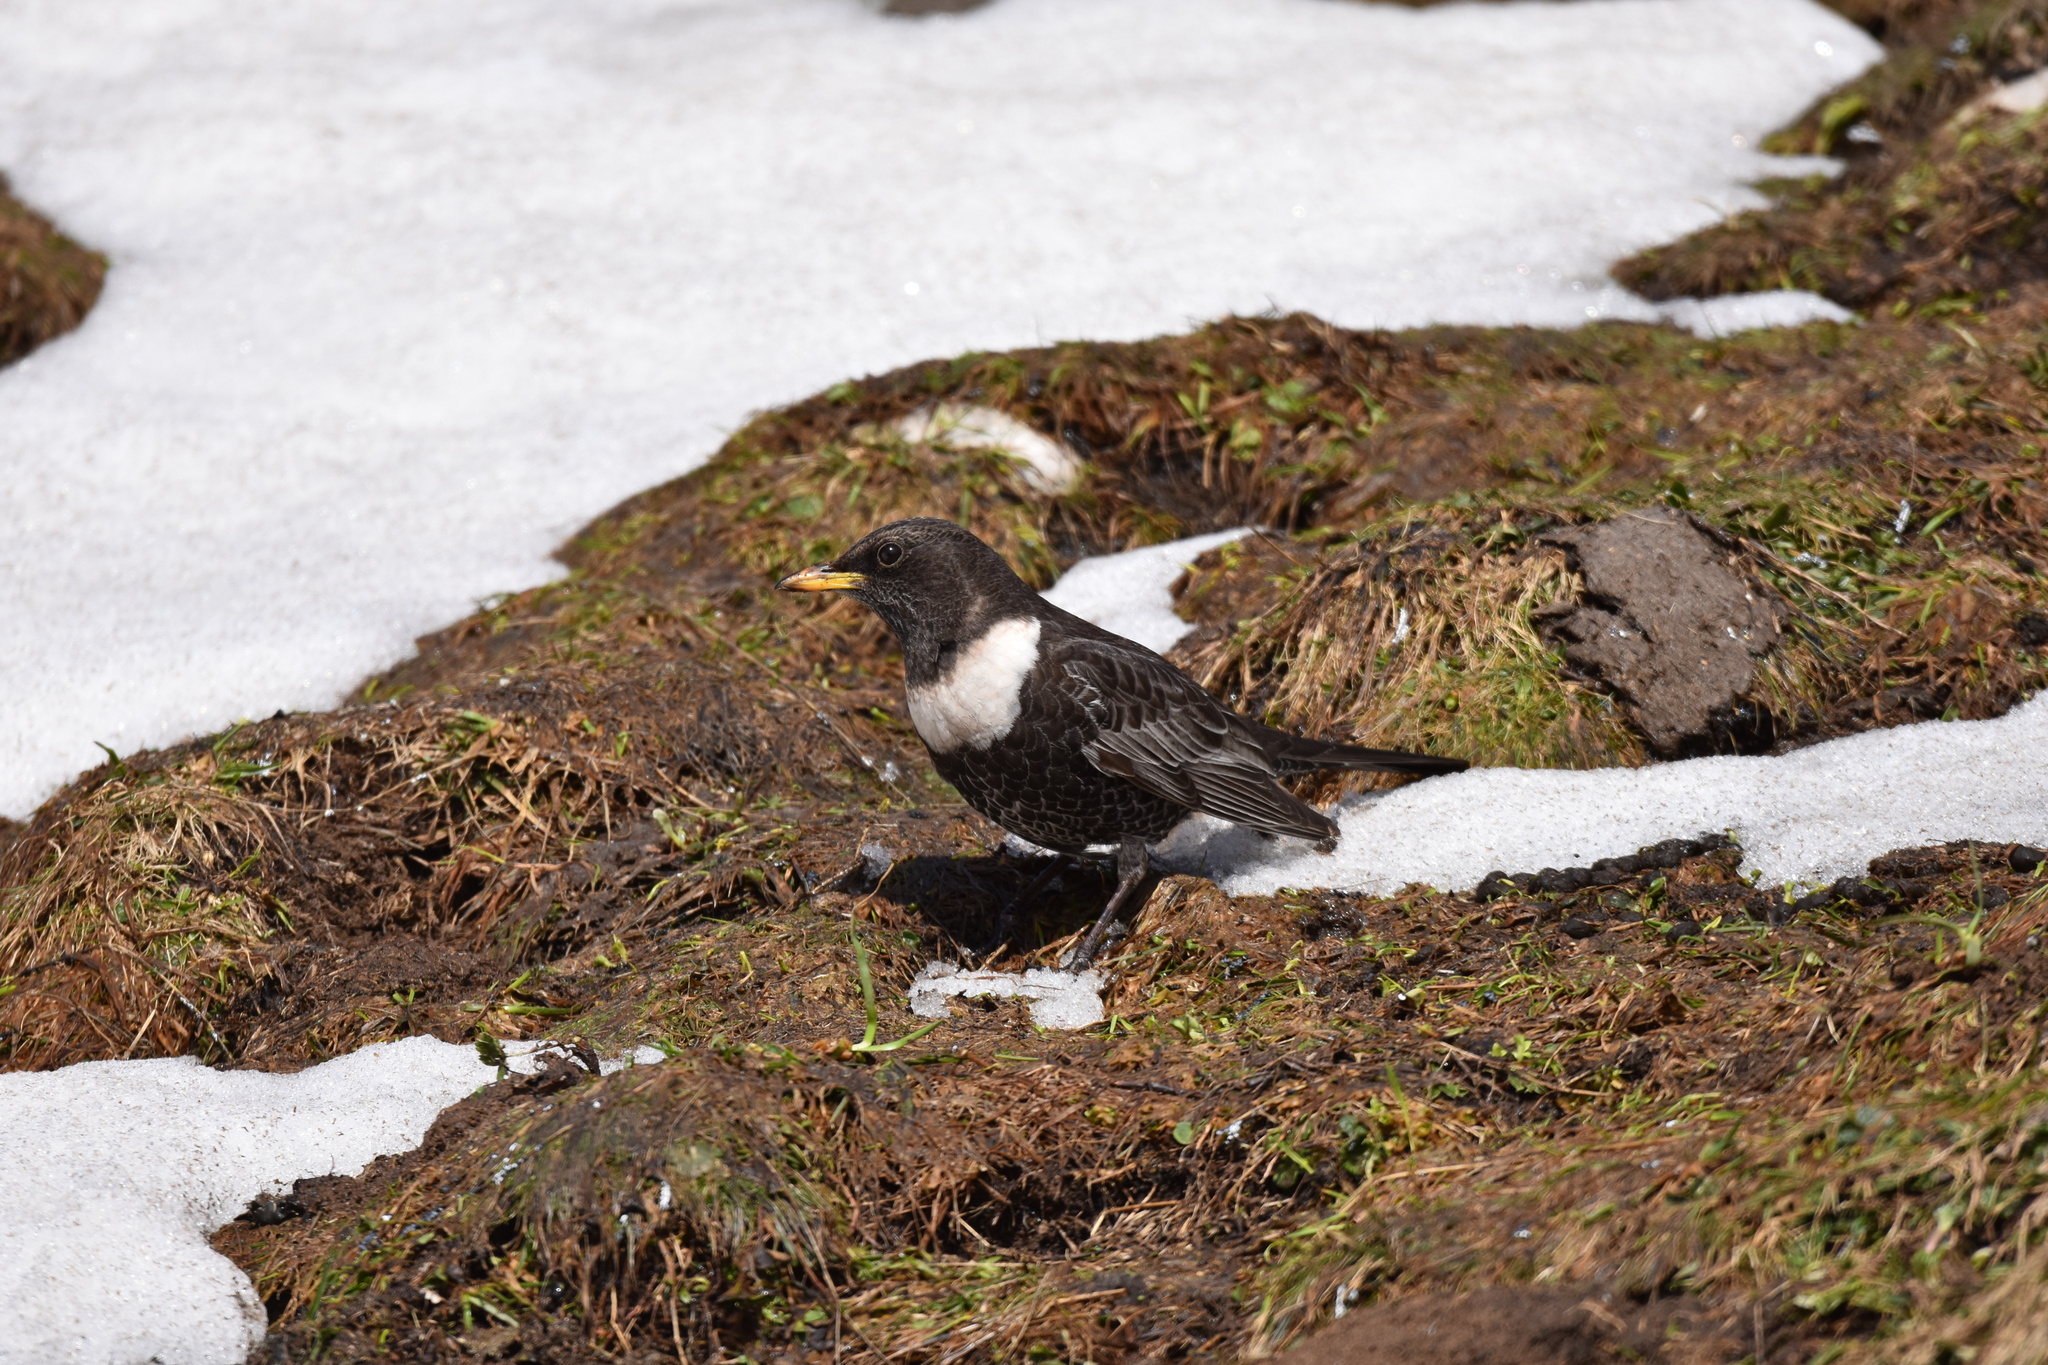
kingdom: Animalia
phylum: Chordata
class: Aves
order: Passeriformes
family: Turdidae
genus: Turdus
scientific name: Turdus torquatus
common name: Ring ouzel
